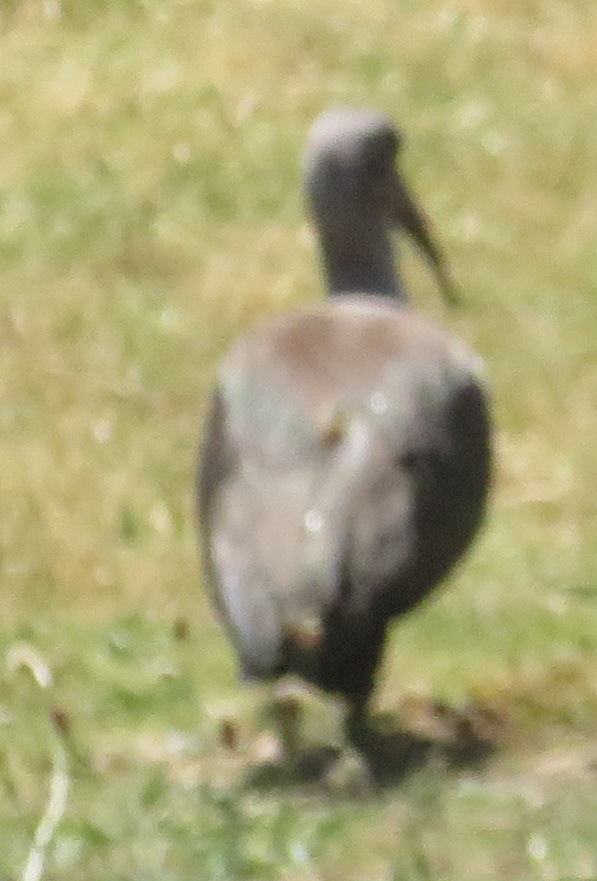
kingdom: Animalia
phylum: Chordata
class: Aves
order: Pelecaniformes
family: Threskiornithidae
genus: Bostrychia
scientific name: Bostrychia hagedash
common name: Hadada ibis
